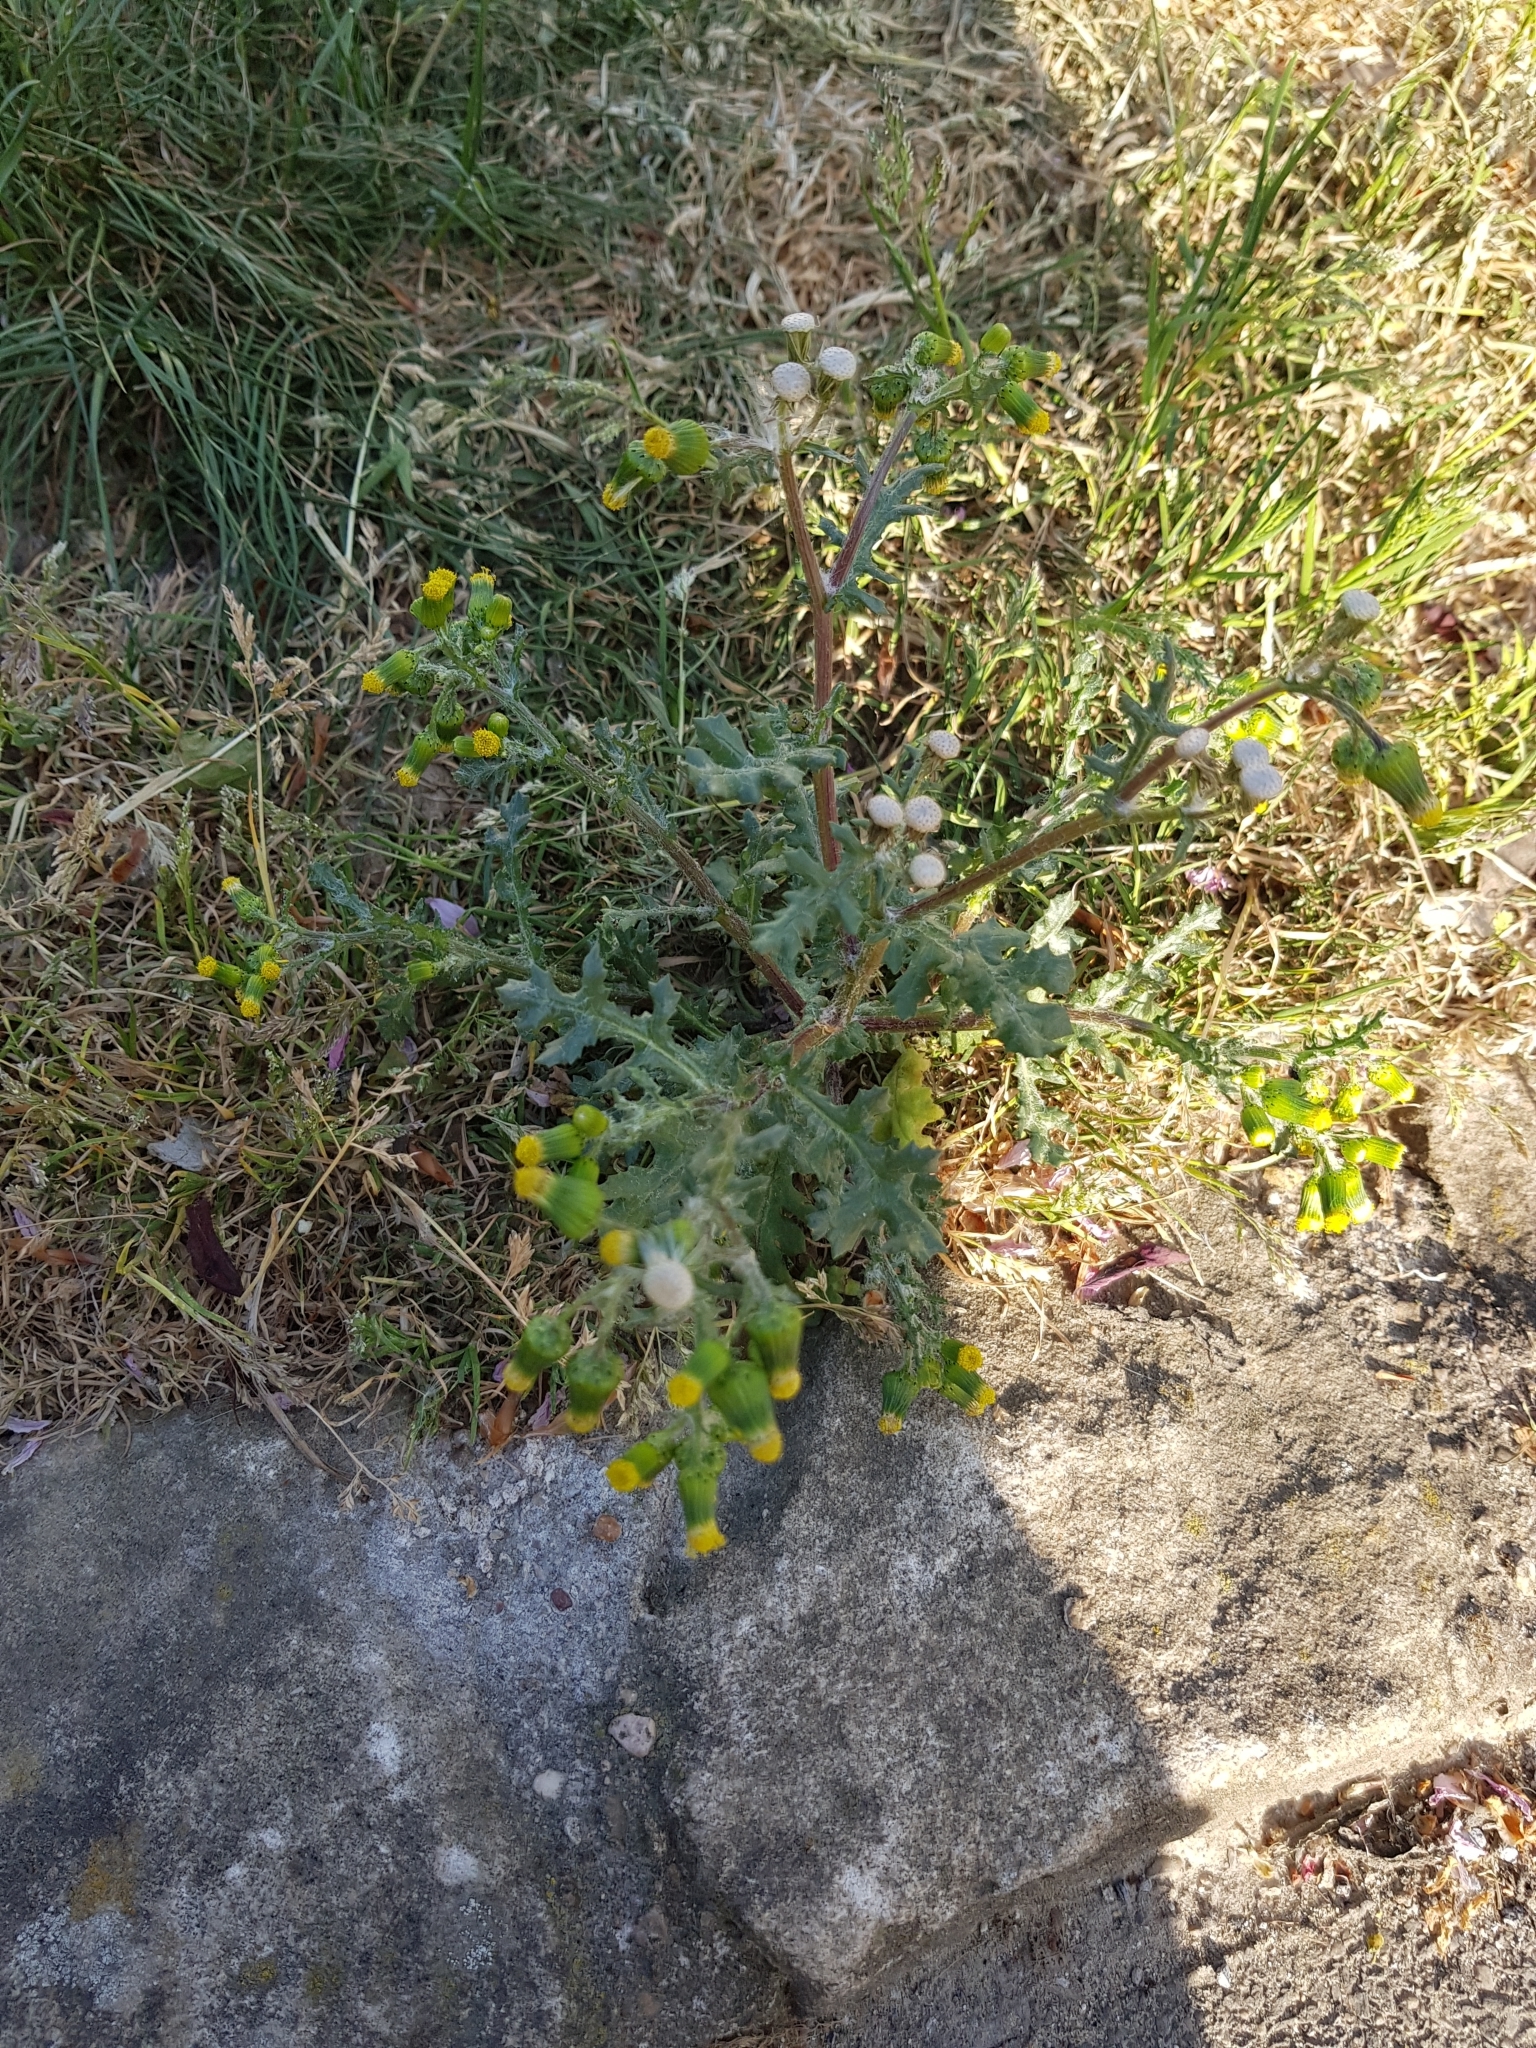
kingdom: Plantae
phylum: Tracheophyta
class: Magnoliopsida
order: Asterales
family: Asteraceae
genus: Senecio
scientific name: Senecio vulgaris
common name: Old-man-in-the-spring
